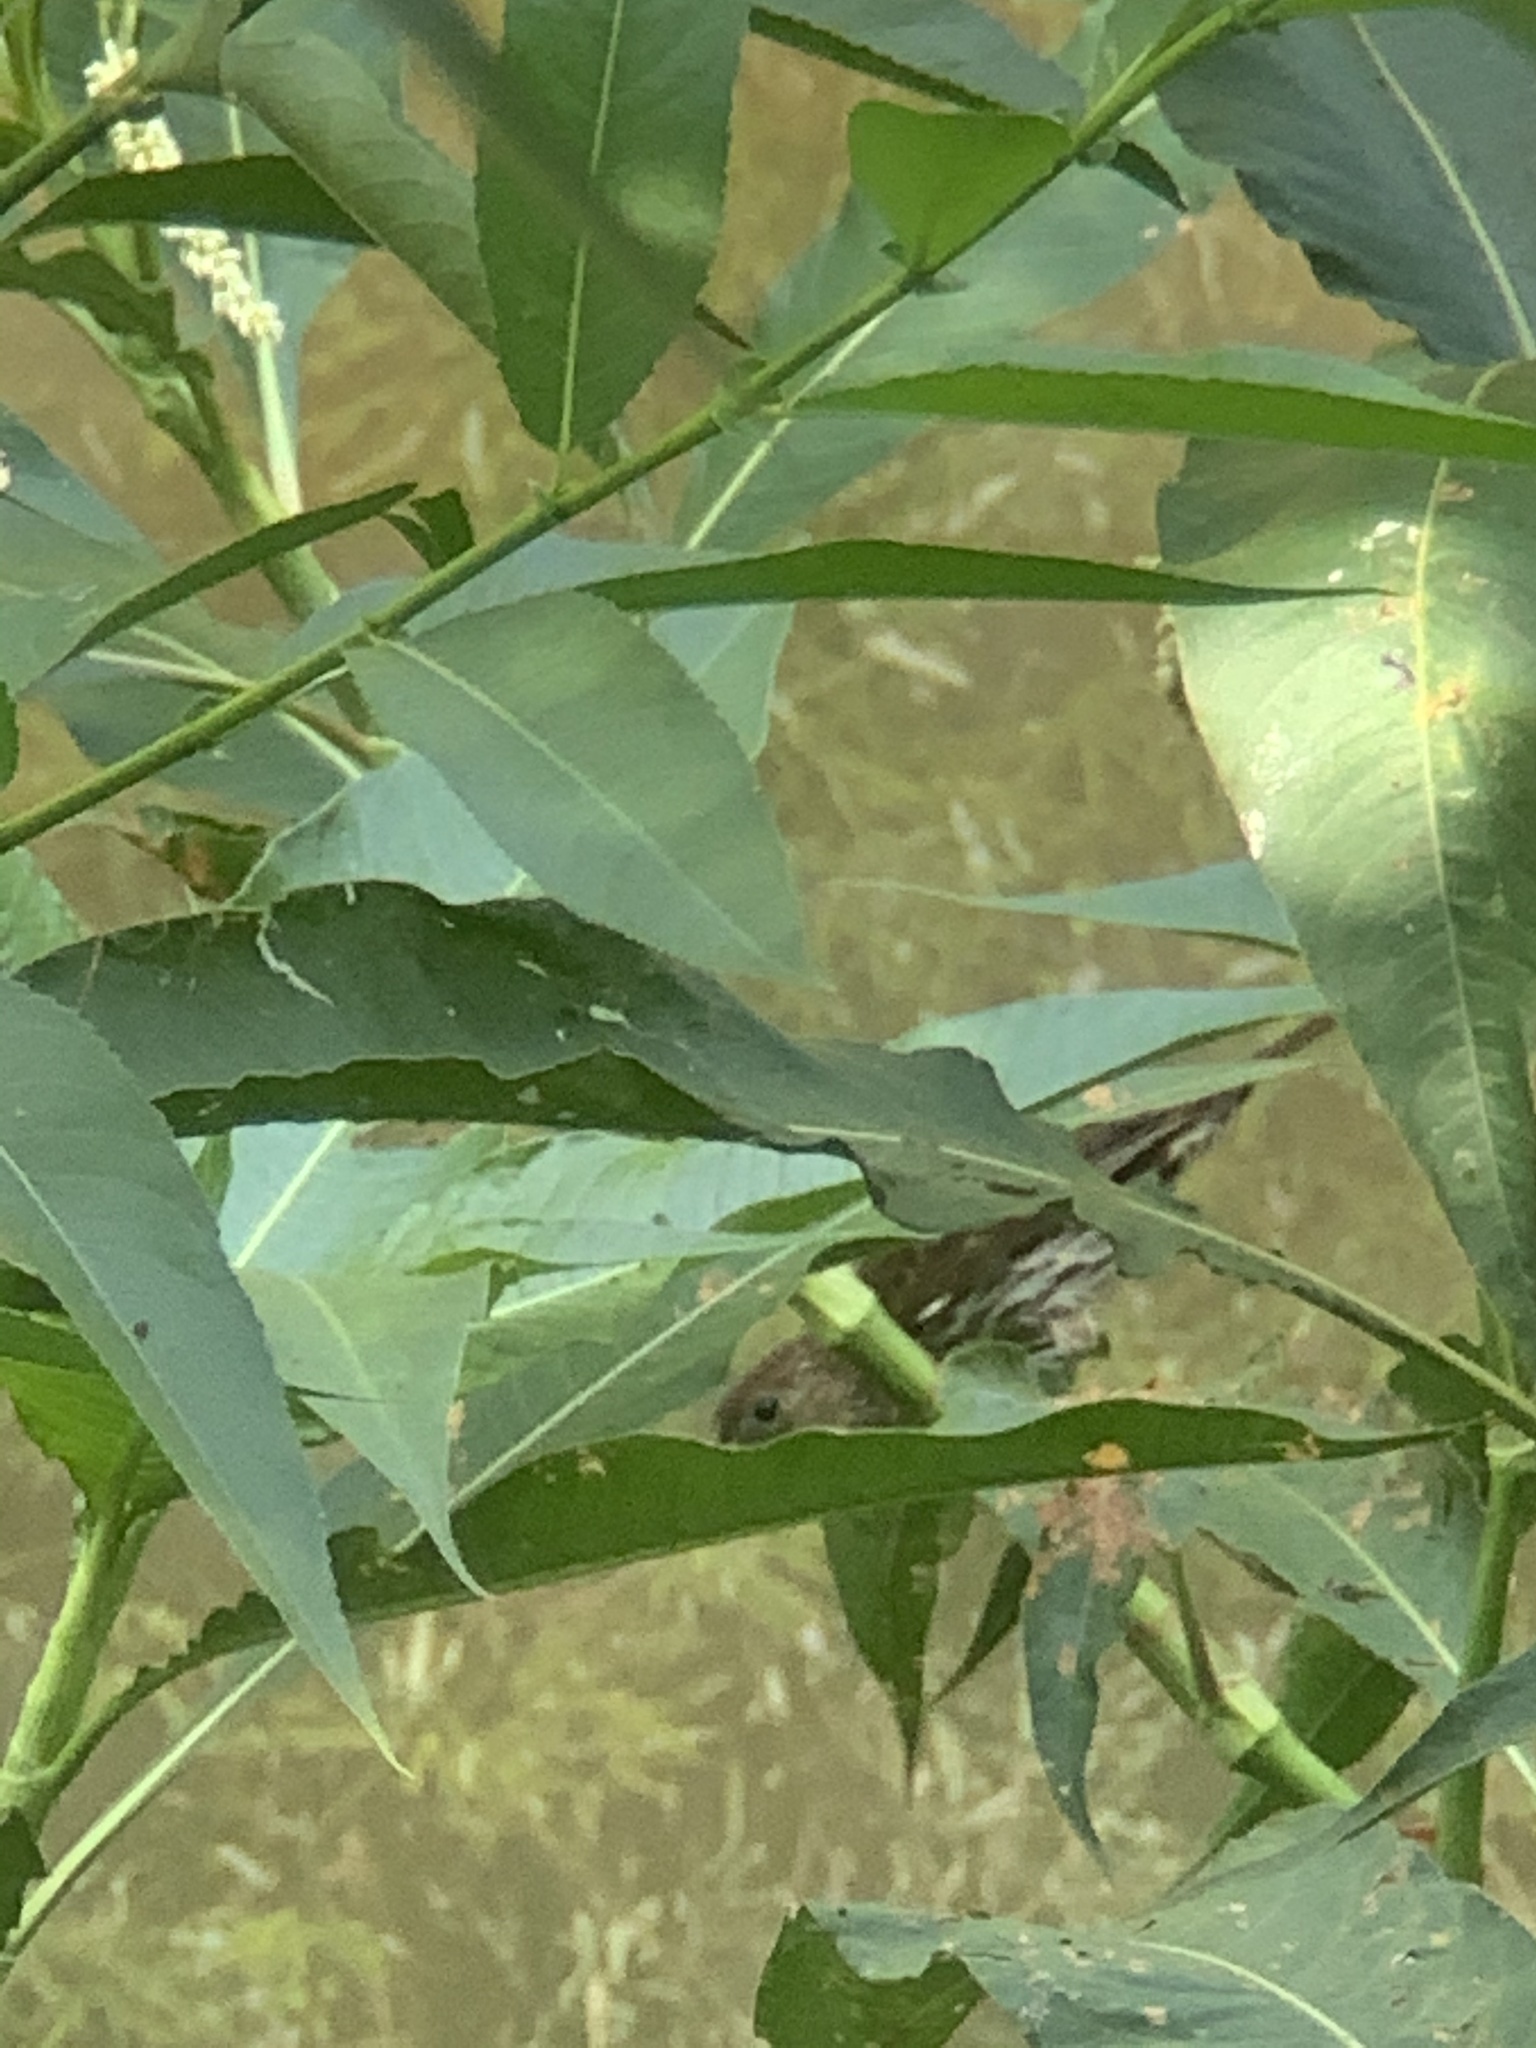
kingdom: Animalia
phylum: Chordata
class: Aves
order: Passeriformes
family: Ploceidae
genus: Amblyospiza
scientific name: Amblyospiza albifrons
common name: Thick-billed weaver
